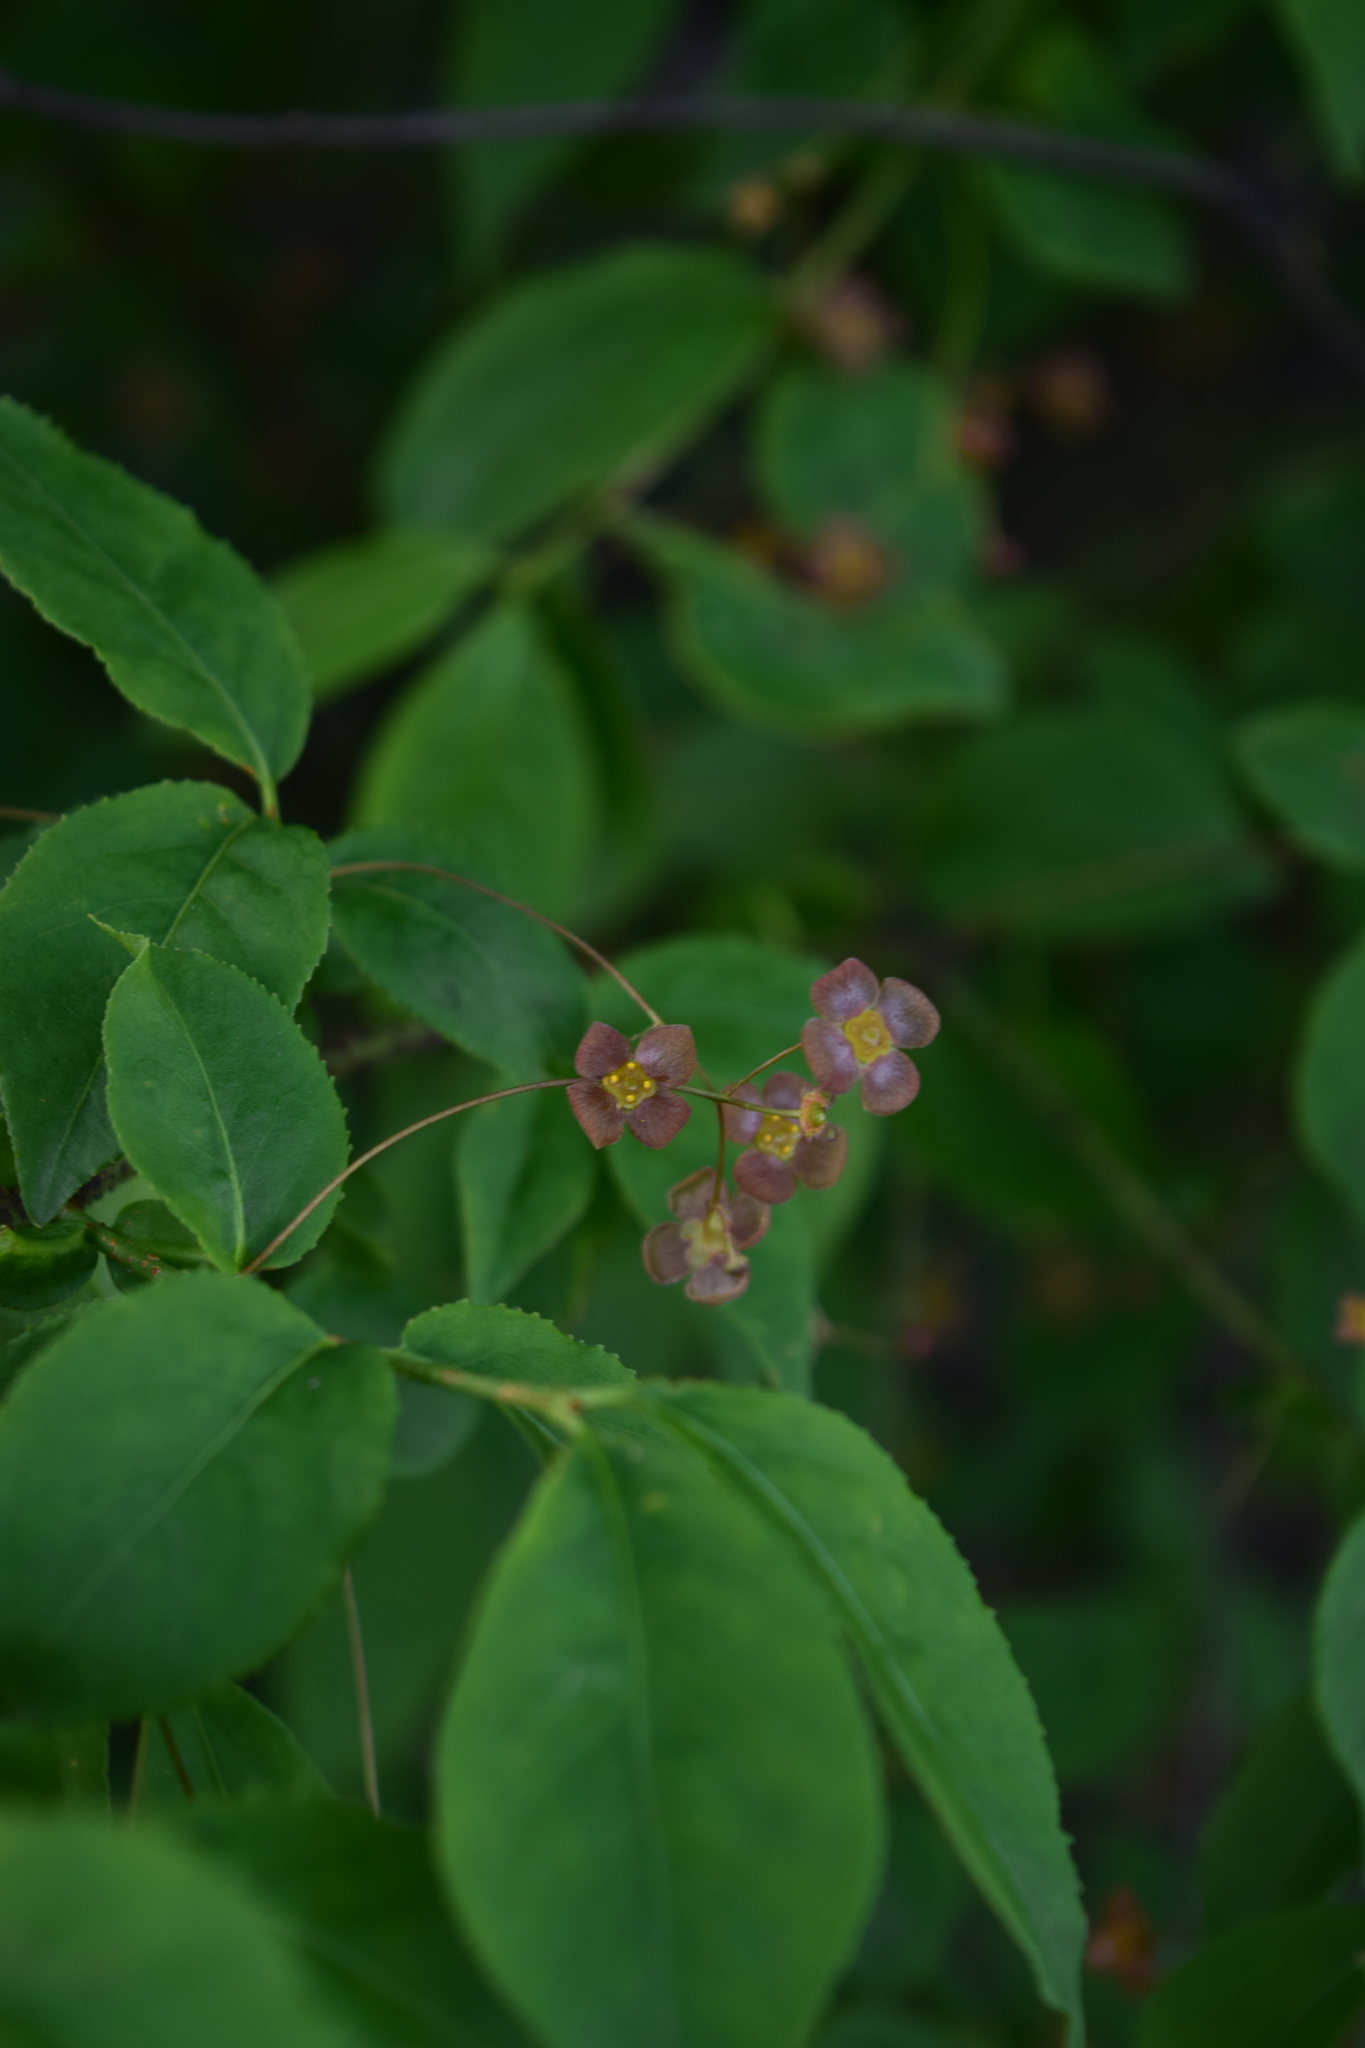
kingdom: Plantae
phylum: Tracheophyta
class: Magnoliopsida
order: Celastrales
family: Celastraceae
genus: Euonymus
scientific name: Euonymus verrucosus
